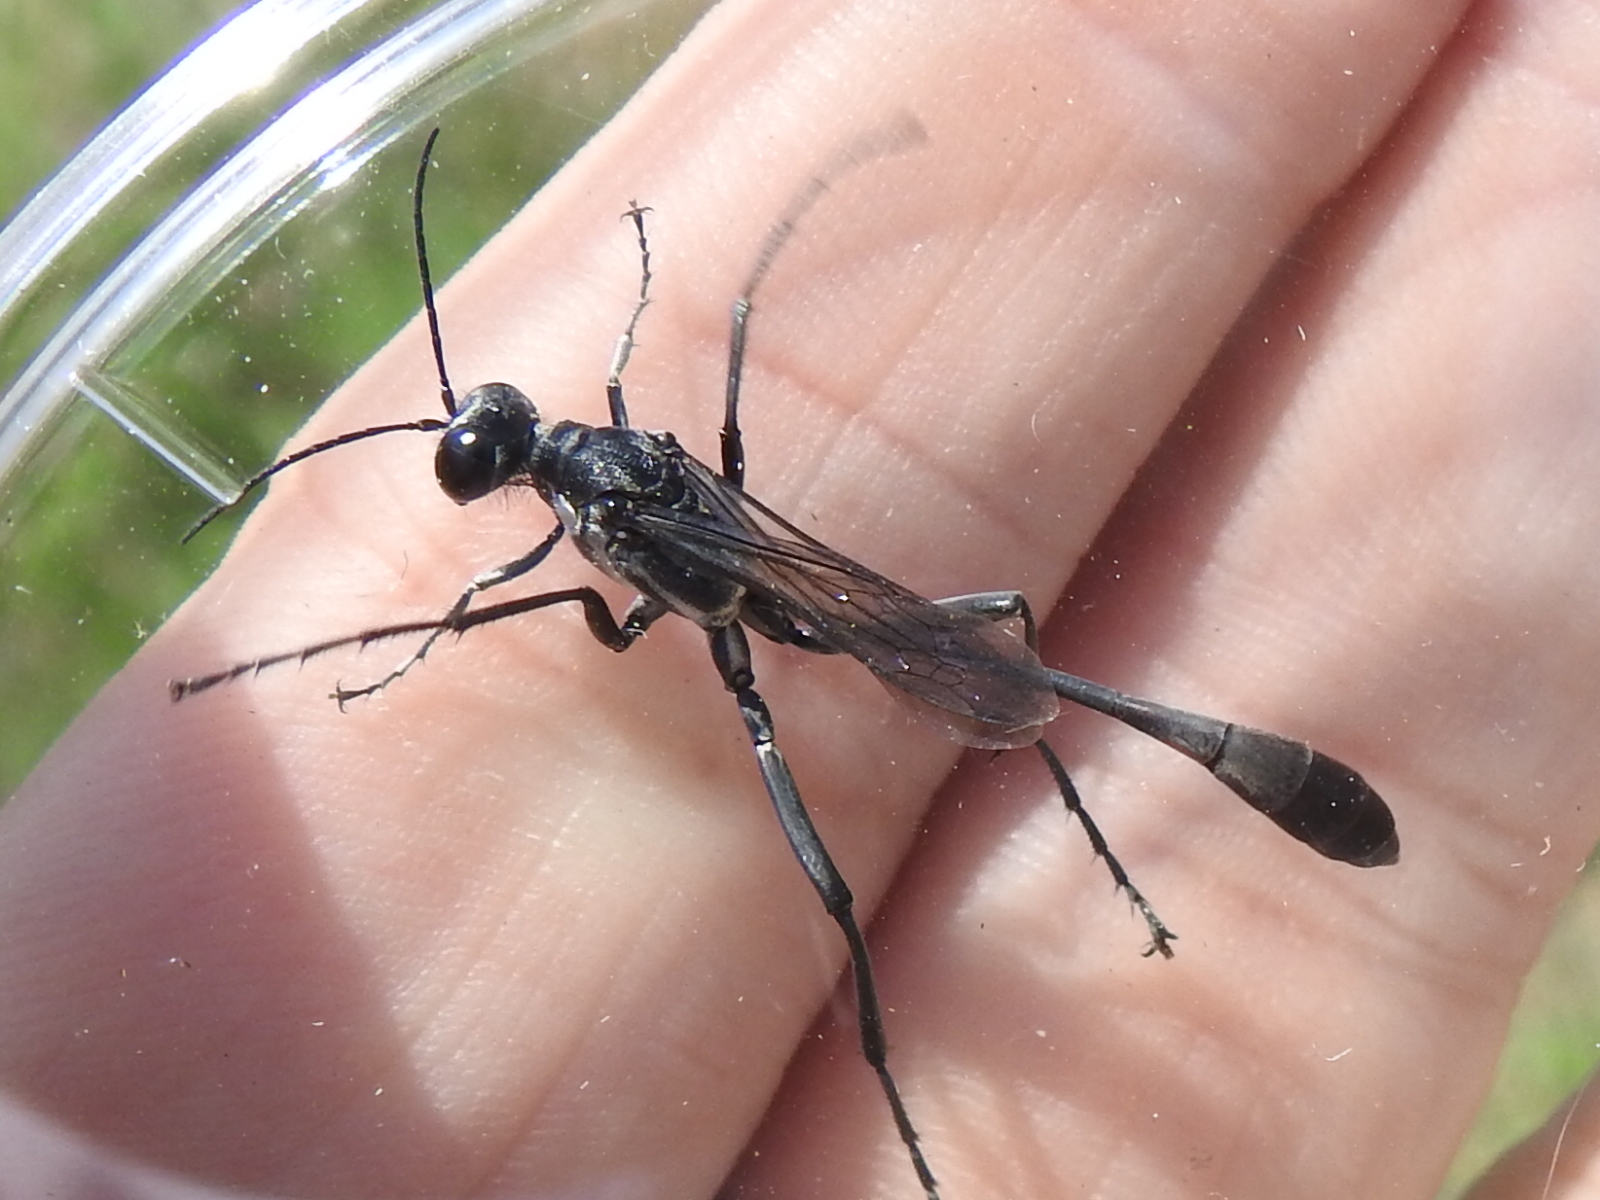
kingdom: Animalia
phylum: Arthropoda
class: Insecta
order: Hymenoptera
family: Sphecidae
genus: Eremnophila
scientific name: Eremnophila aureonotata
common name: Gold-marked thread-waisted wasp
